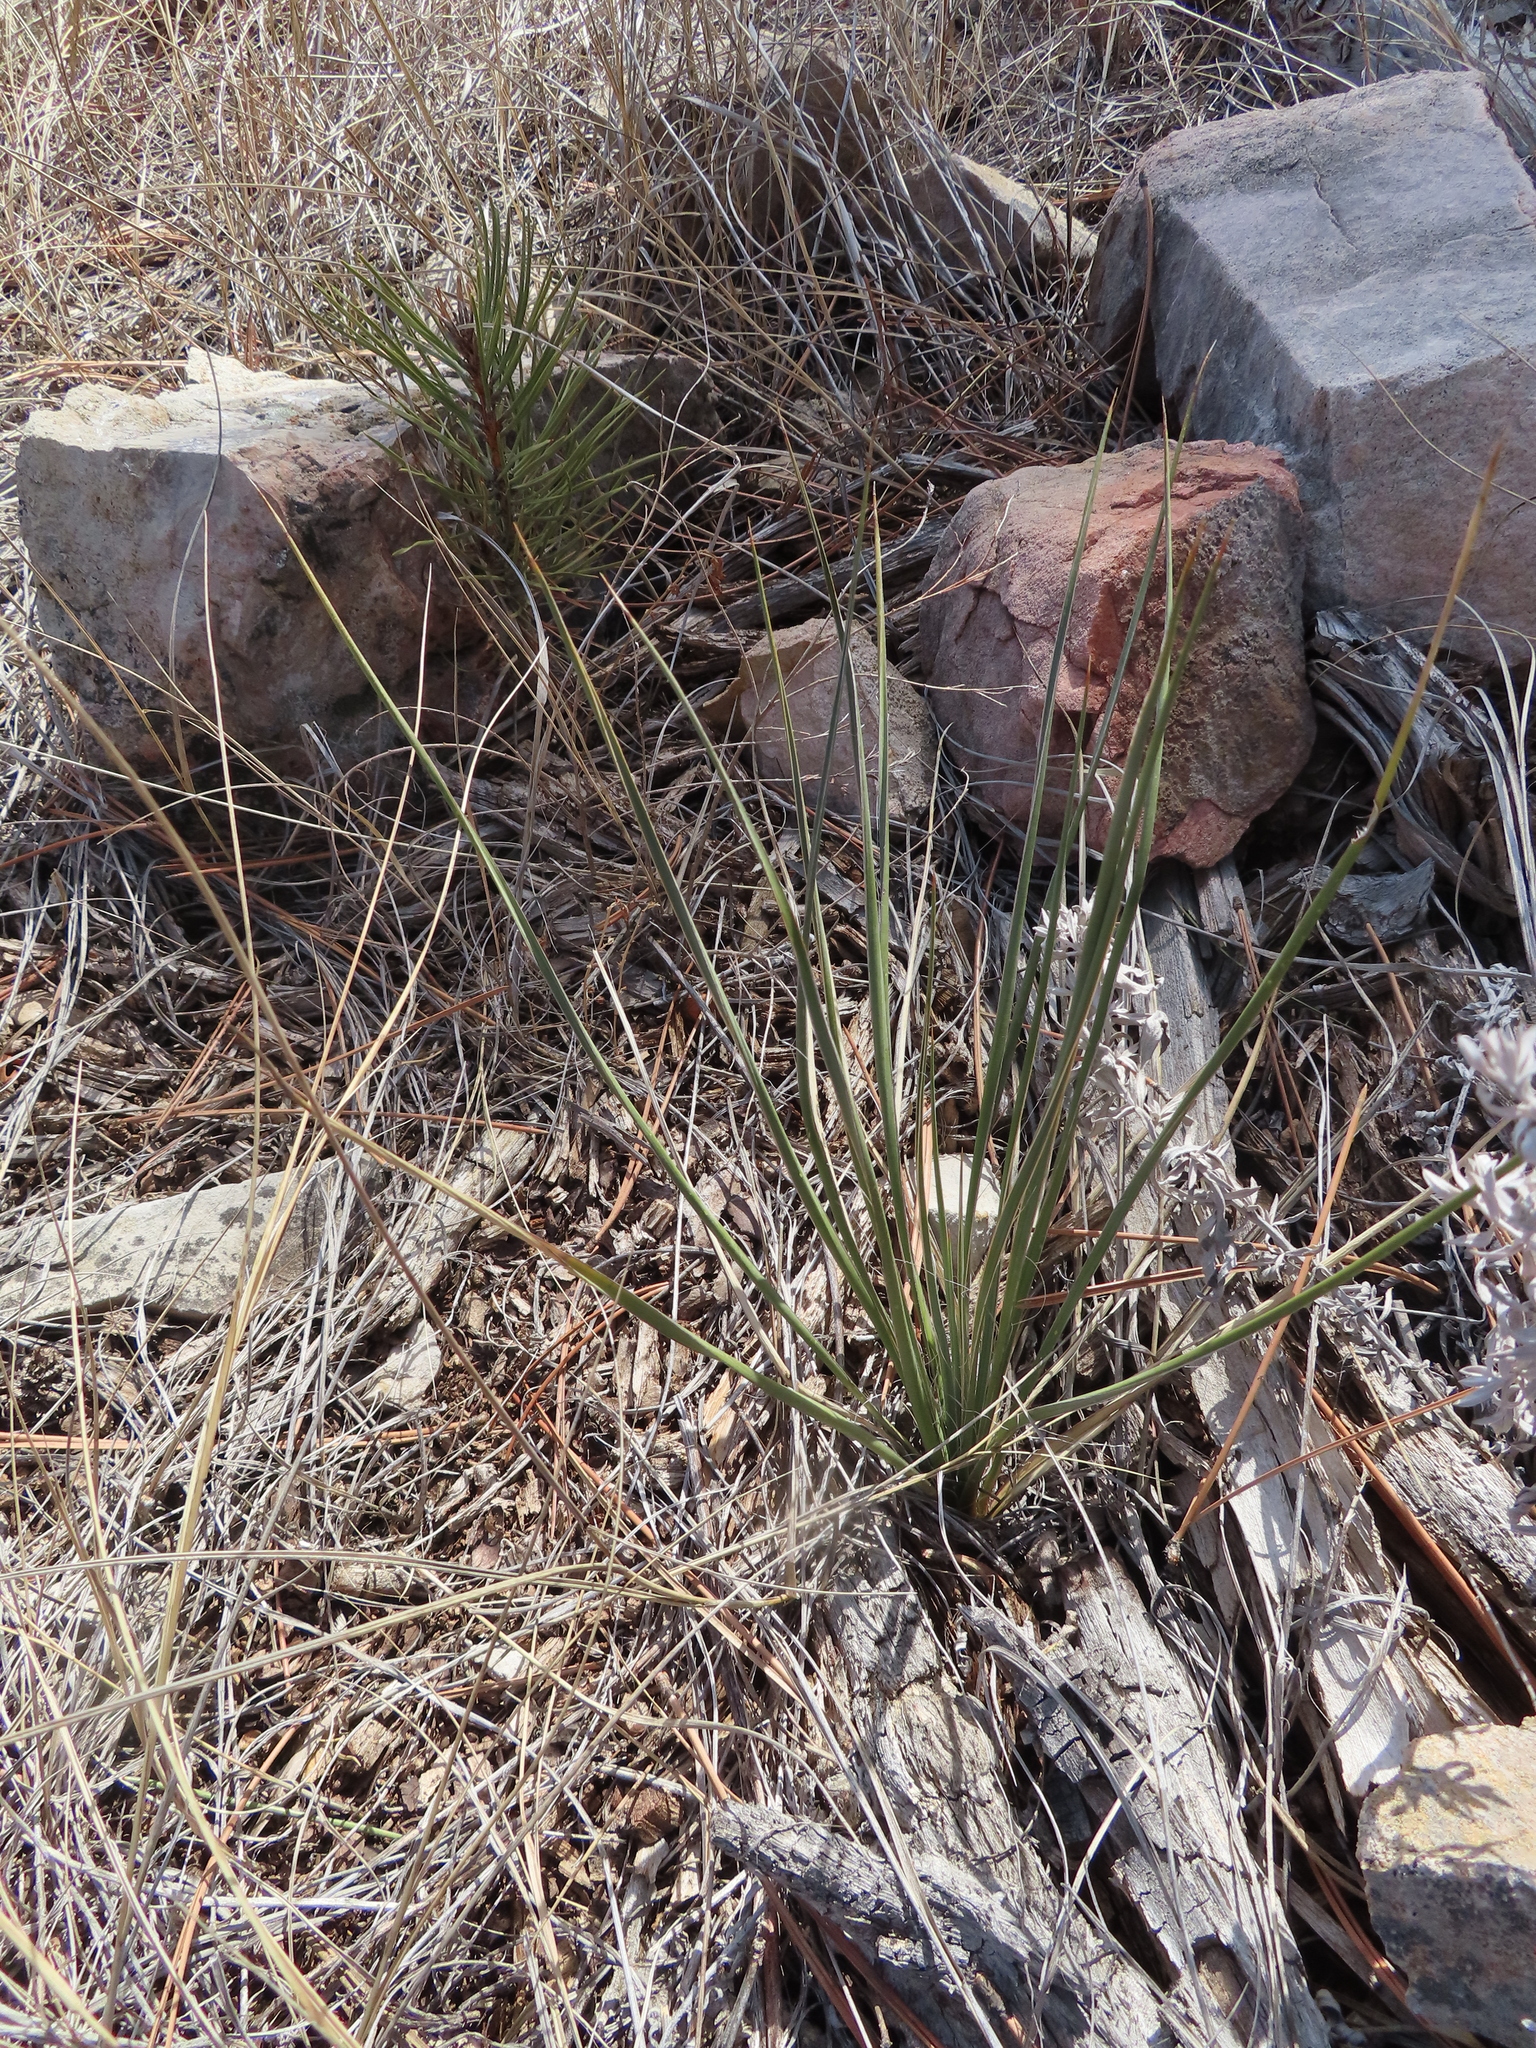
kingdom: Plantae
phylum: Tracheophyta
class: Liliopsida
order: Asparagales
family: Asparagaceae
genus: Yucca
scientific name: Yucca glauca
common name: Great plains yucca
